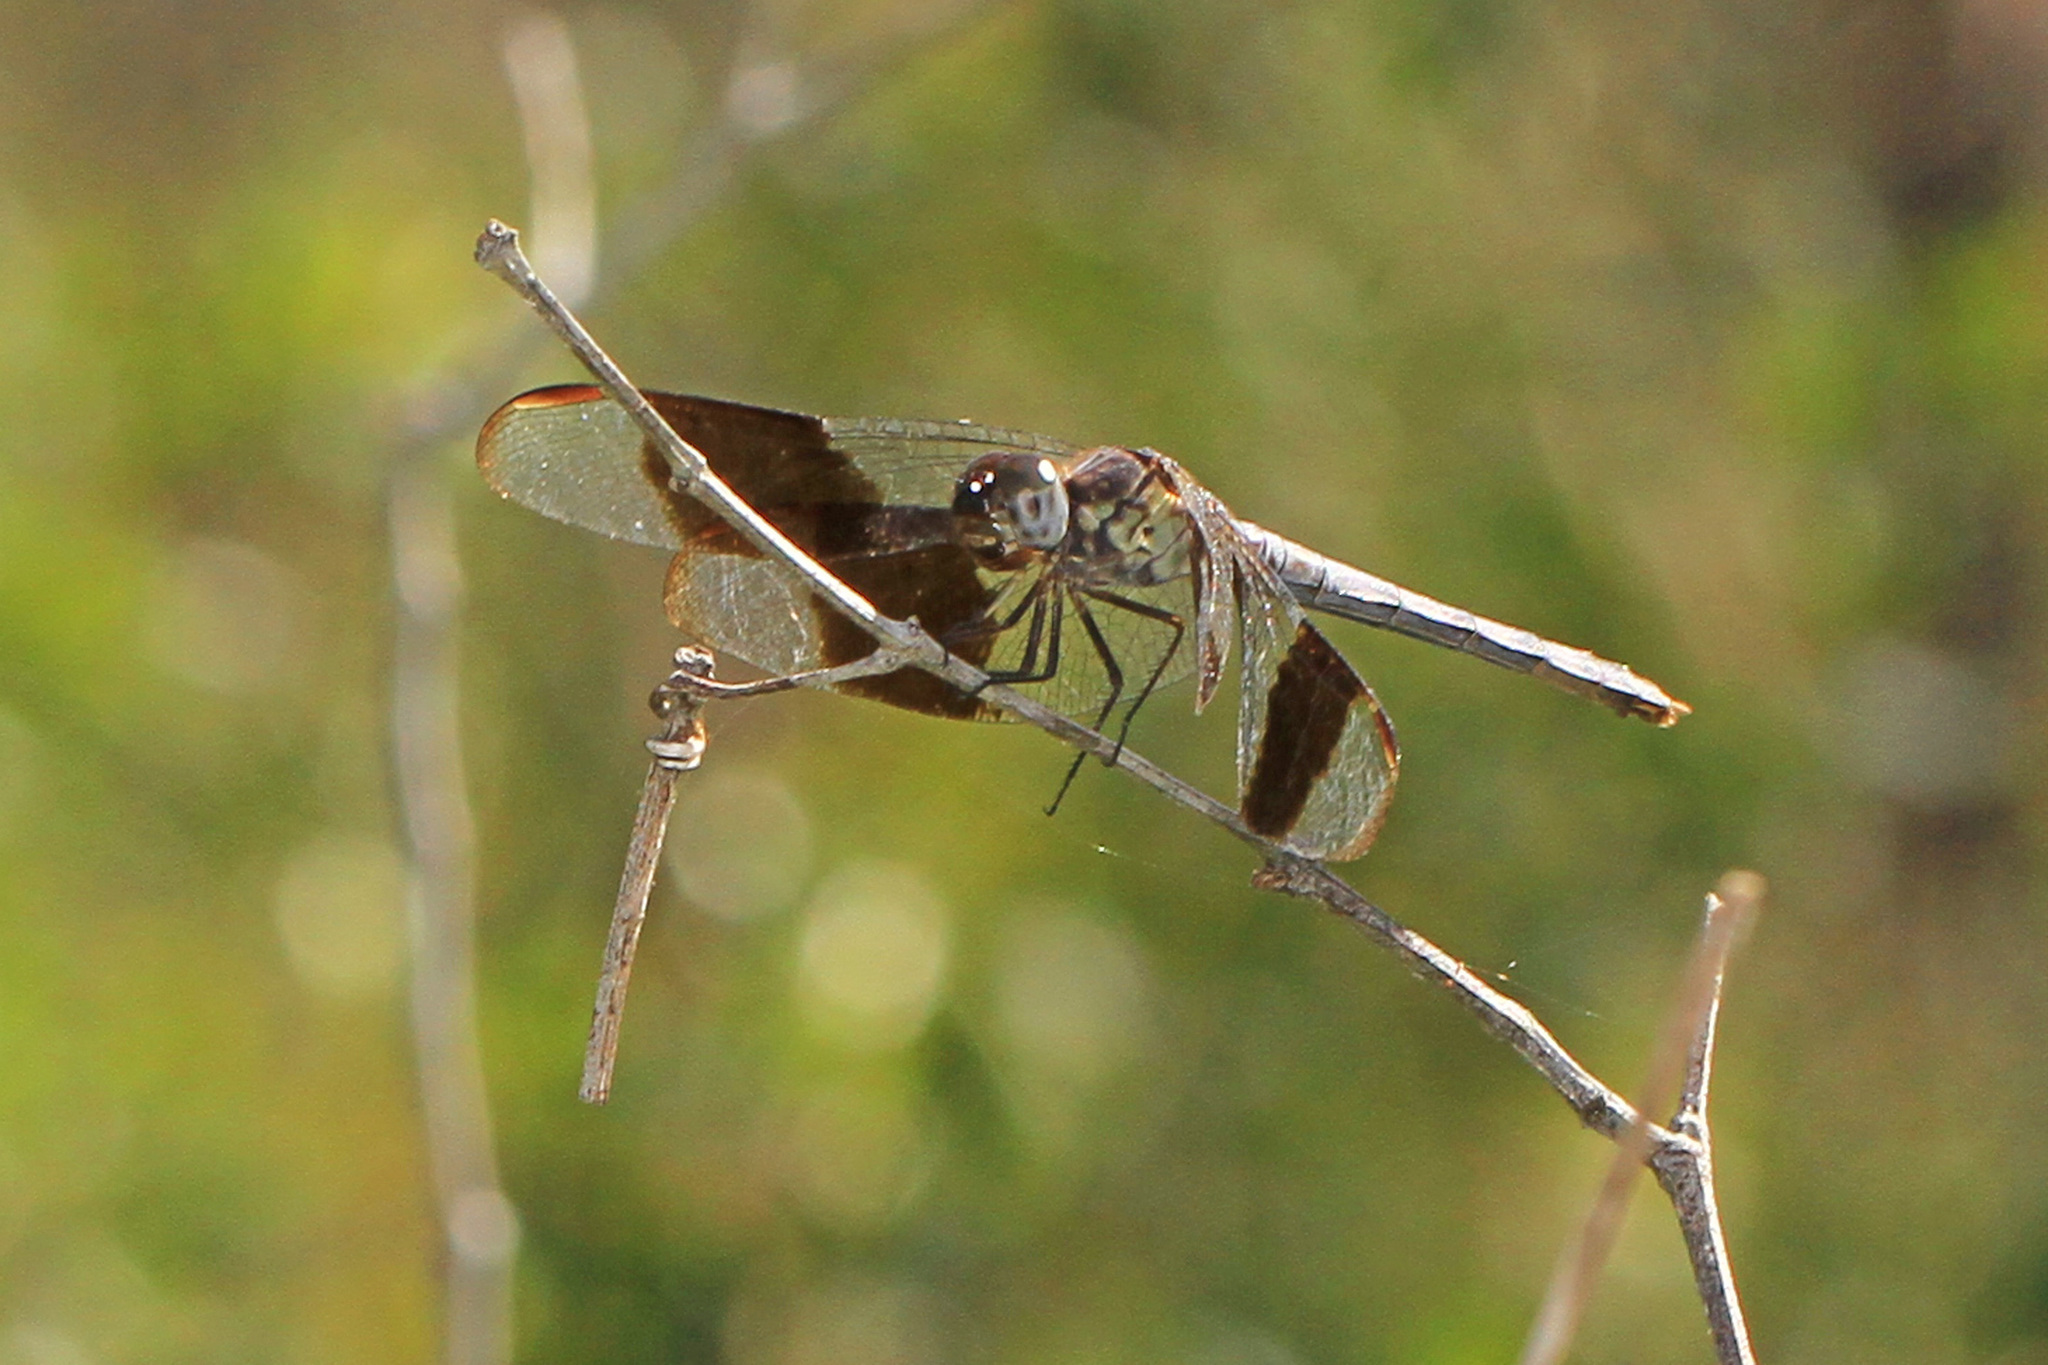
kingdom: Animalia
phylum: Arthropoda
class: Insecta
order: Odonata
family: Libellulidae
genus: Erythrodiplax
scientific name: Erythrodiplax umbrata
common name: Band-winged dragonlet
